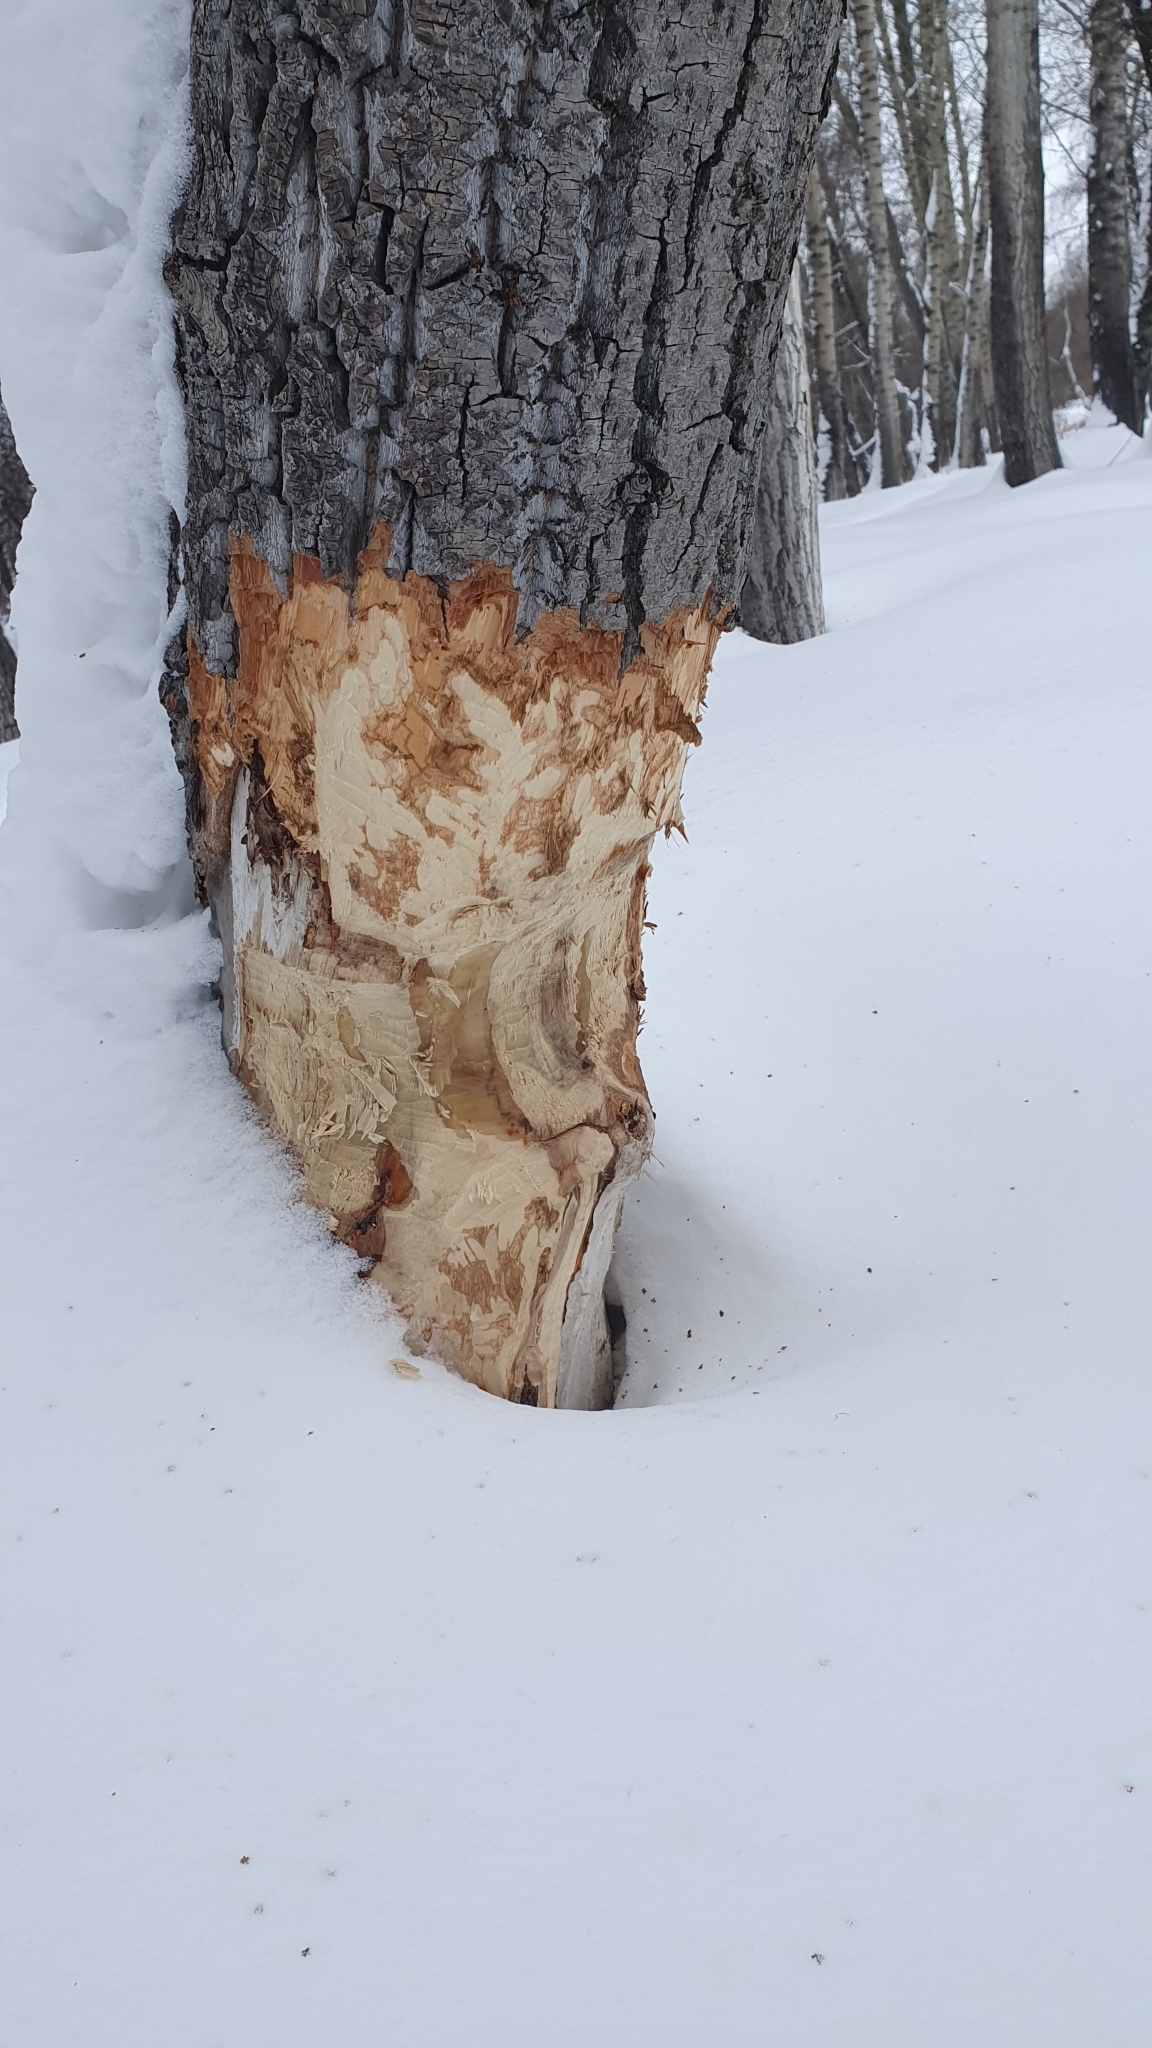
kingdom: Animalia
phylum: Chordata
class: Mammalia
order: Rodentia
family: Castoridae
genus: Castor
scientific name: Castor fiber
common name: Eurasian beaver
